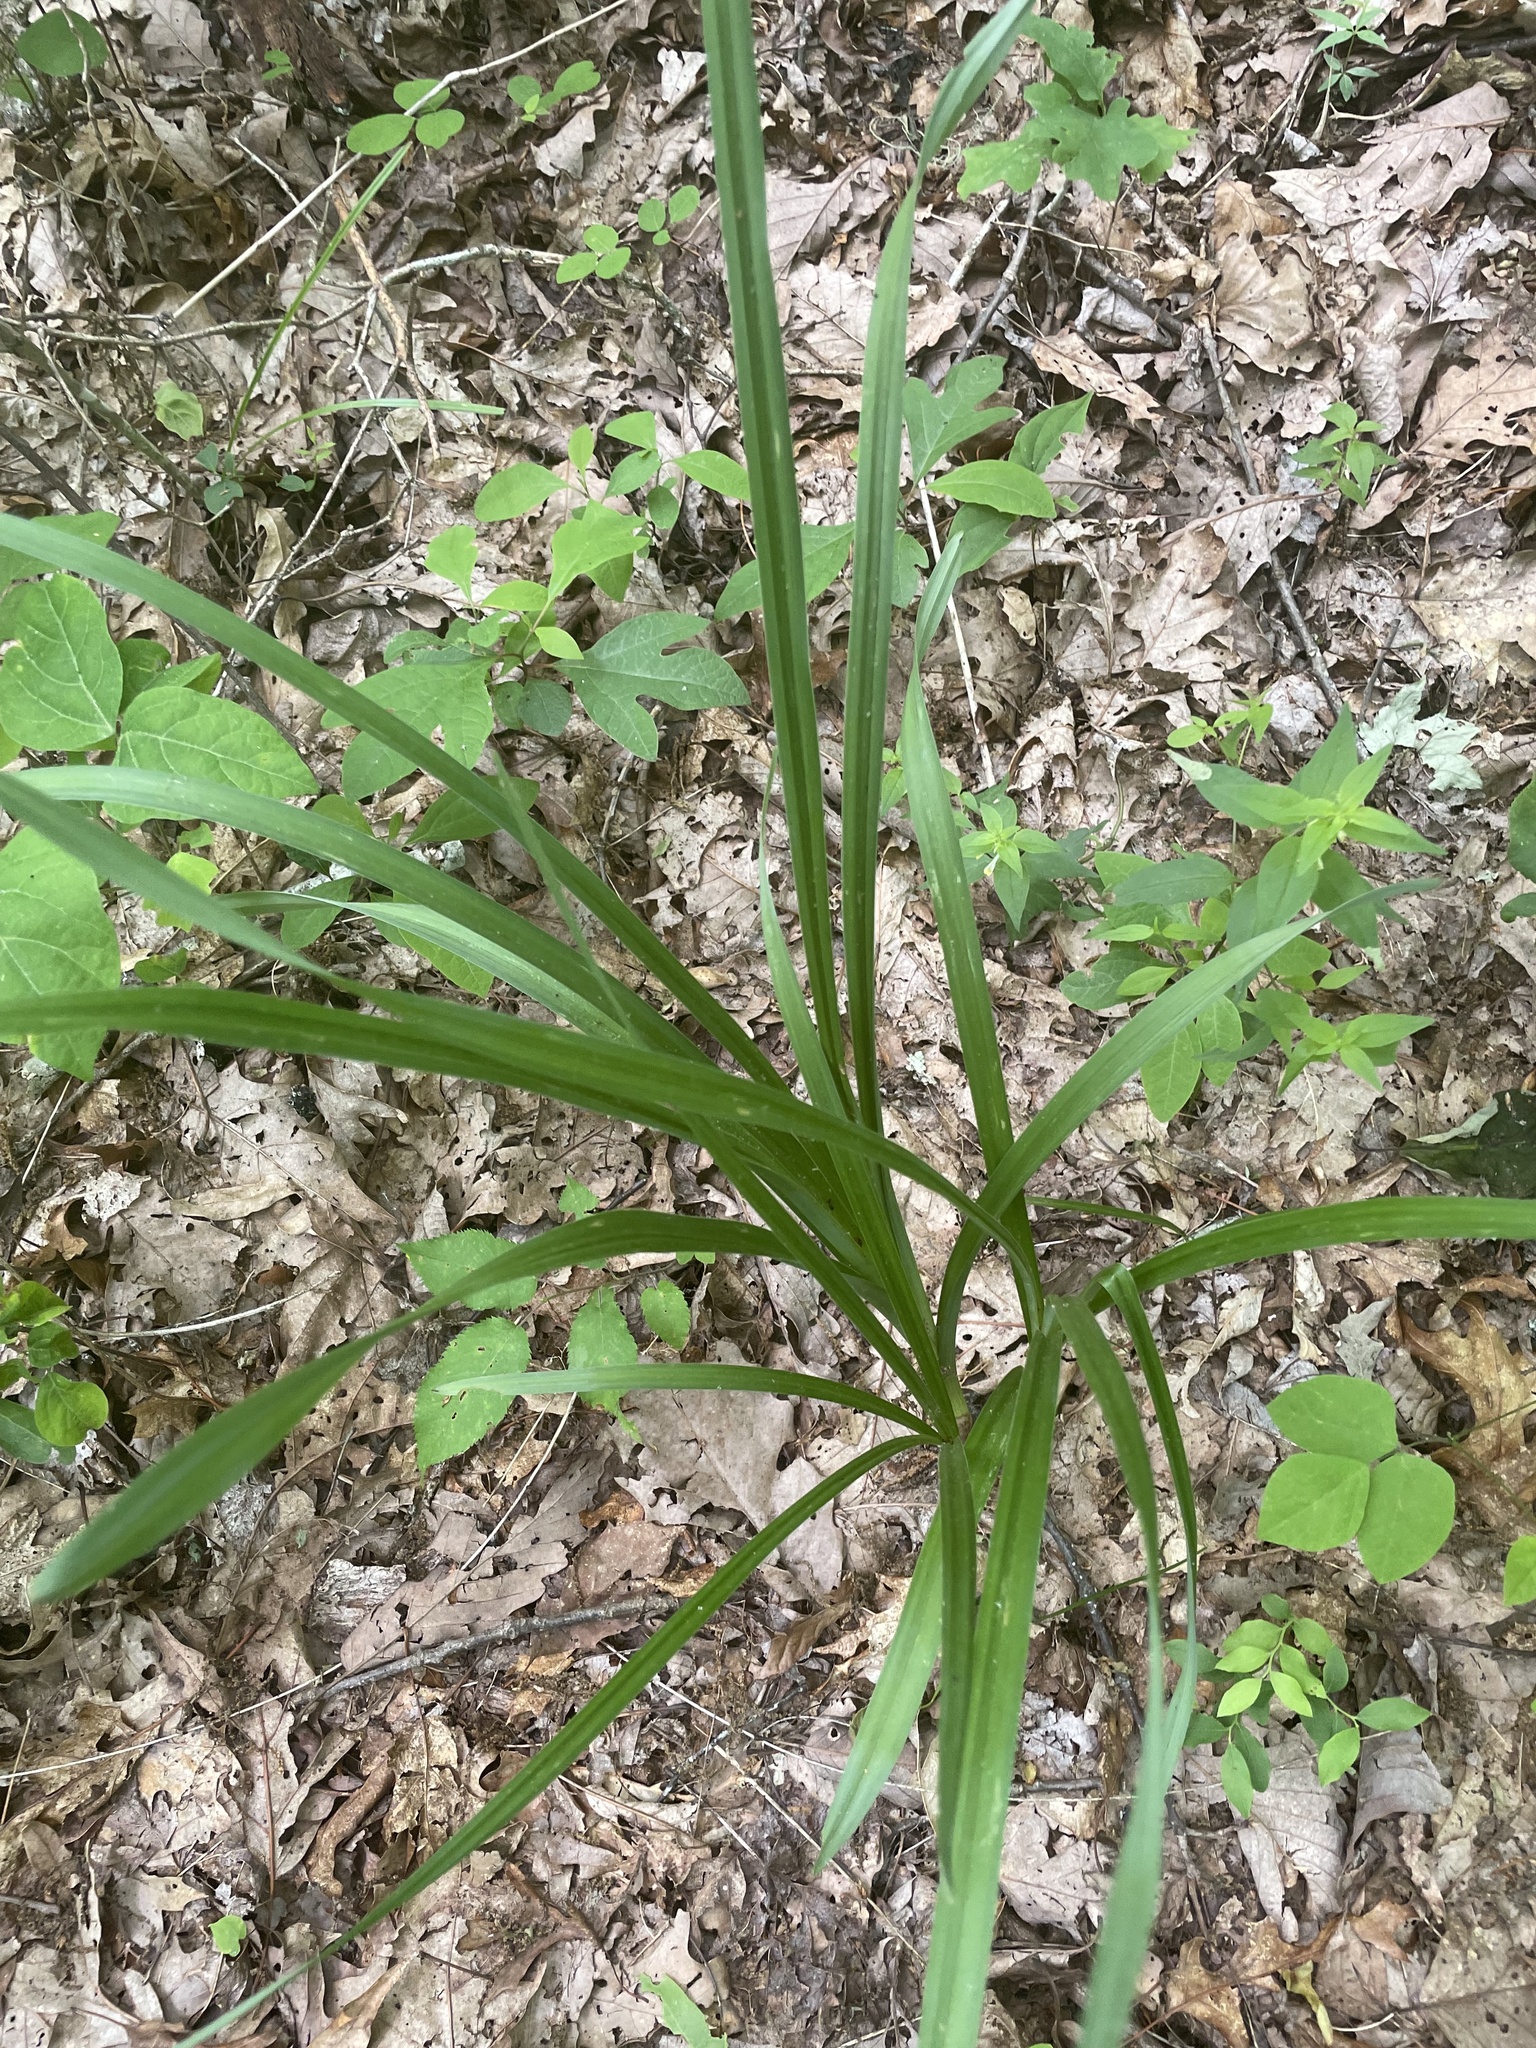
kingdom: Plantae
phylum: Tracheophyta
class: Liliopsida
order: Liliales
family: Melanthiaceae
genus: Stenanthium
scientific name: Stenanthium gramineum
